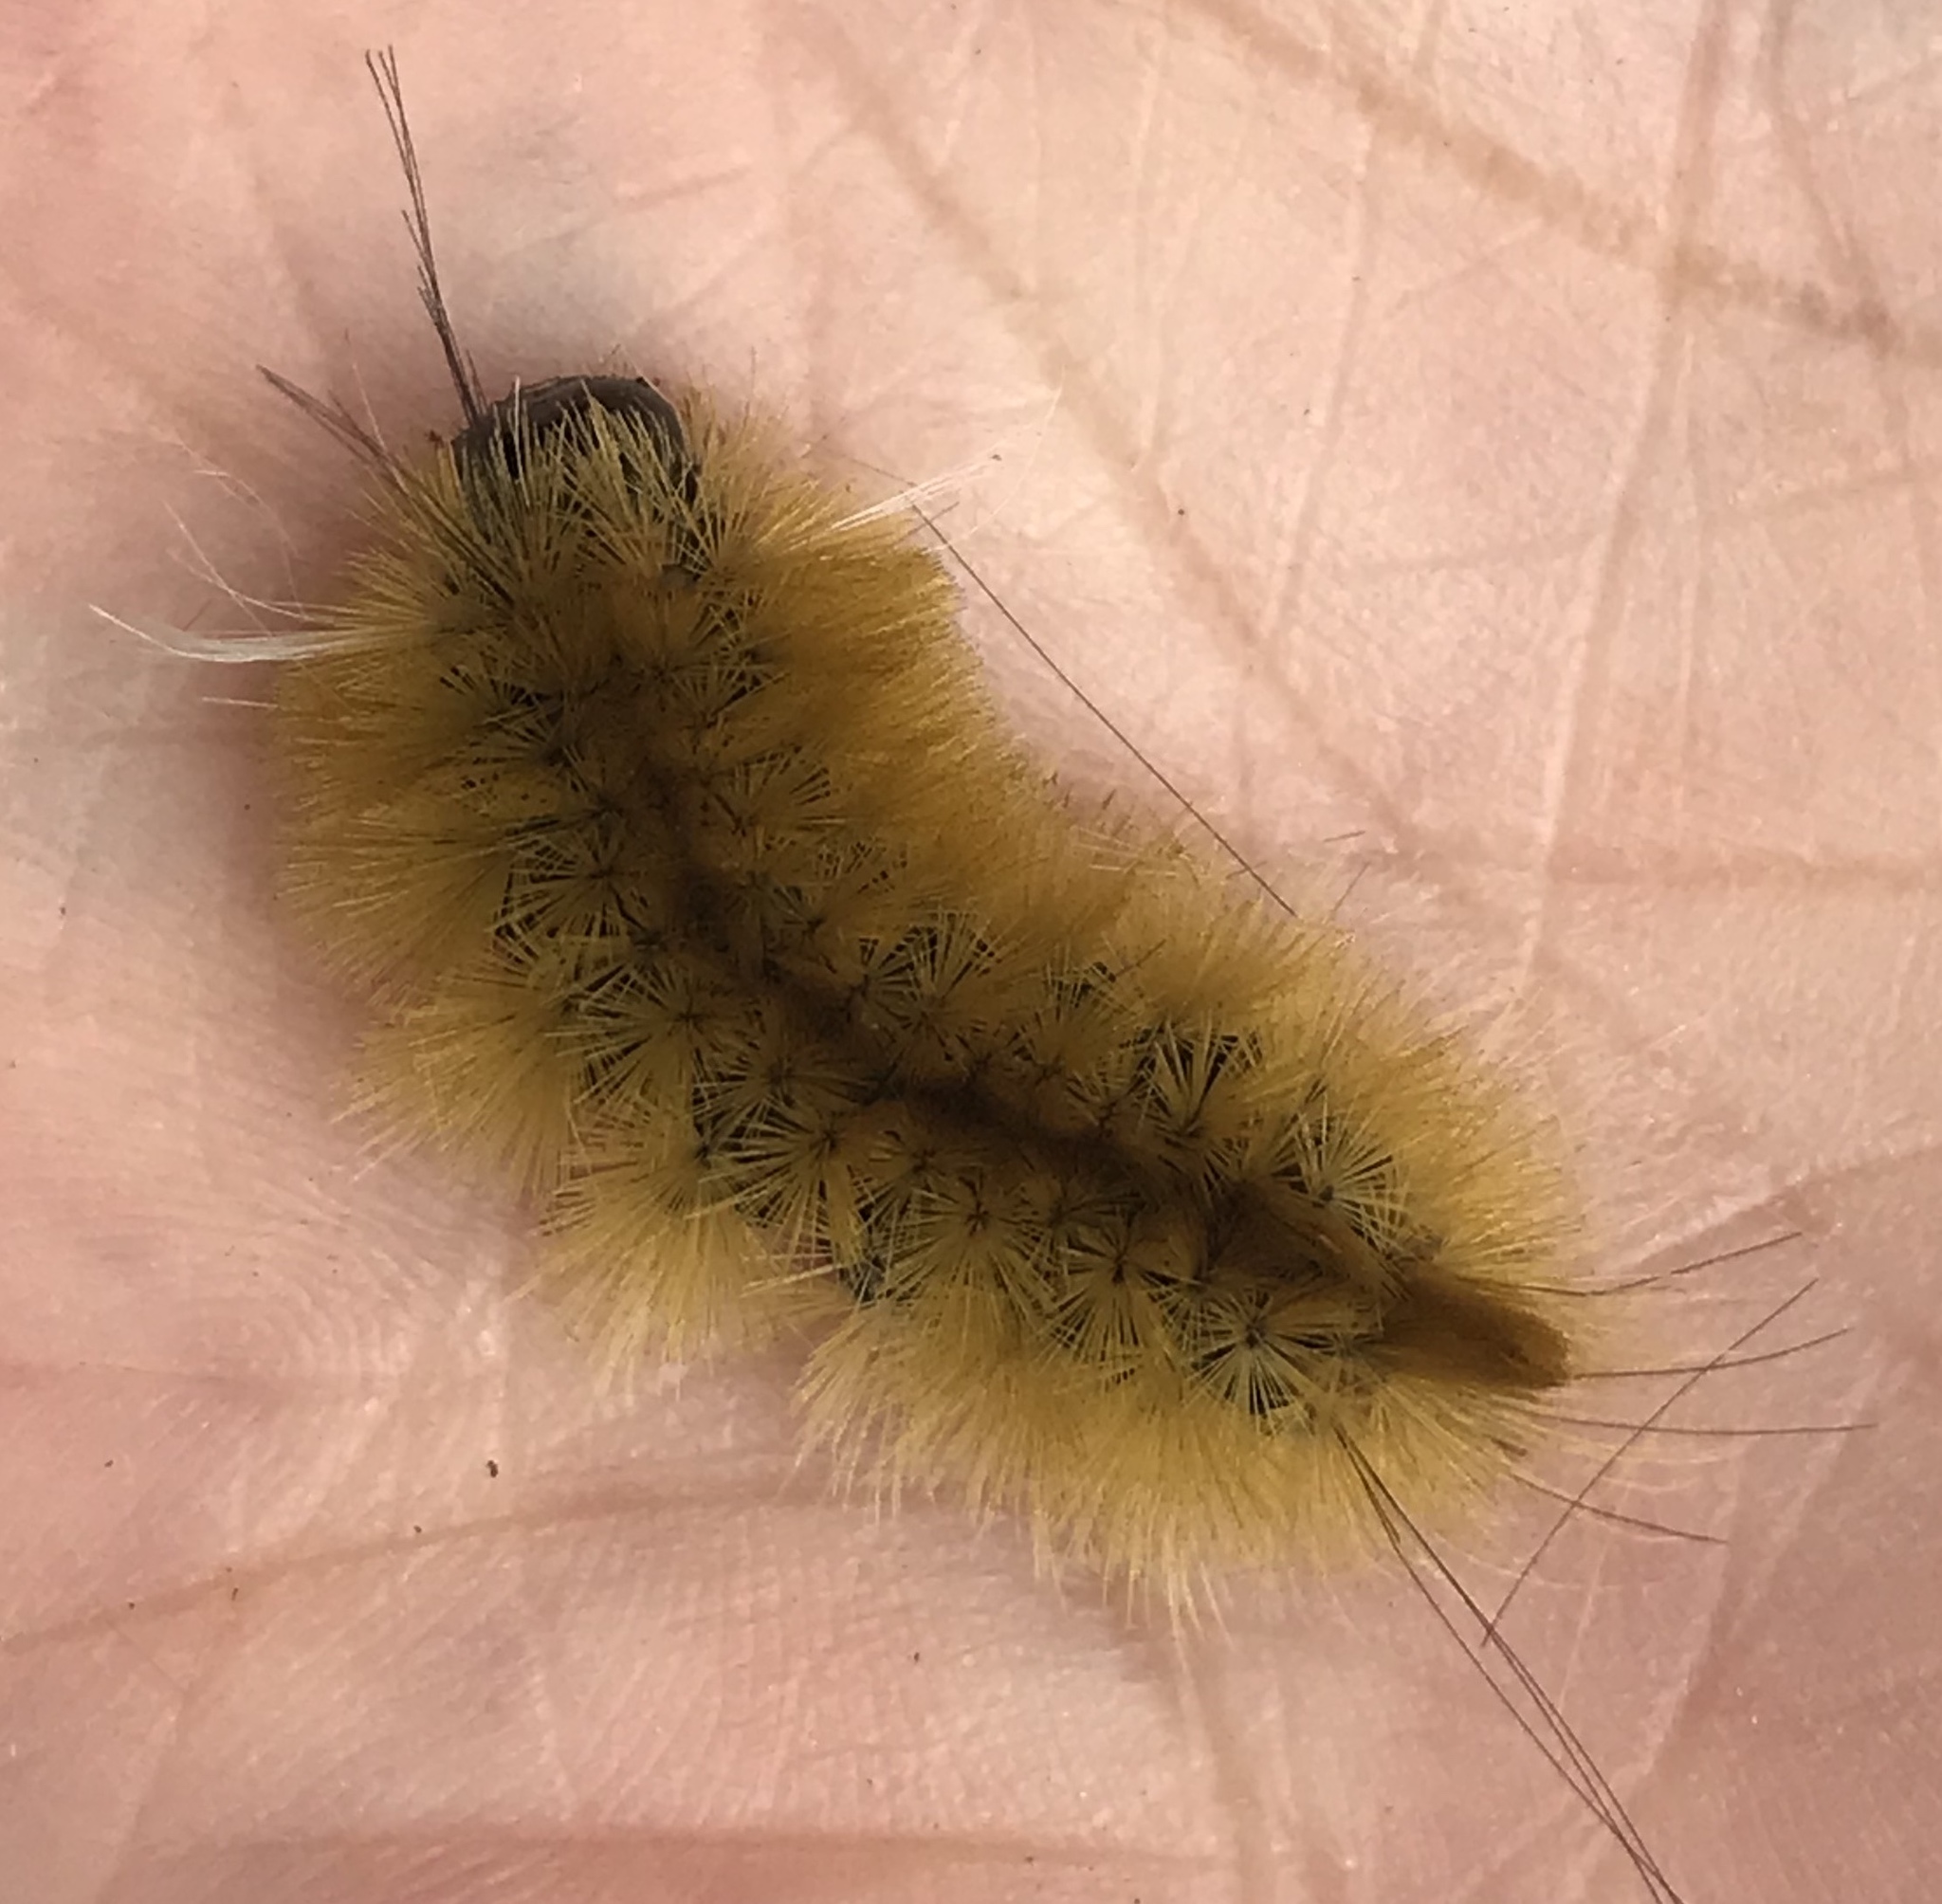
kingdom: Animalia
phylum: Arthropoda
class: Insecta
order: Lepidoptera
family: Erebidae
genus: Halysidota
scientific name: Halysidota tessellaris
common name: Banded tussock moth
